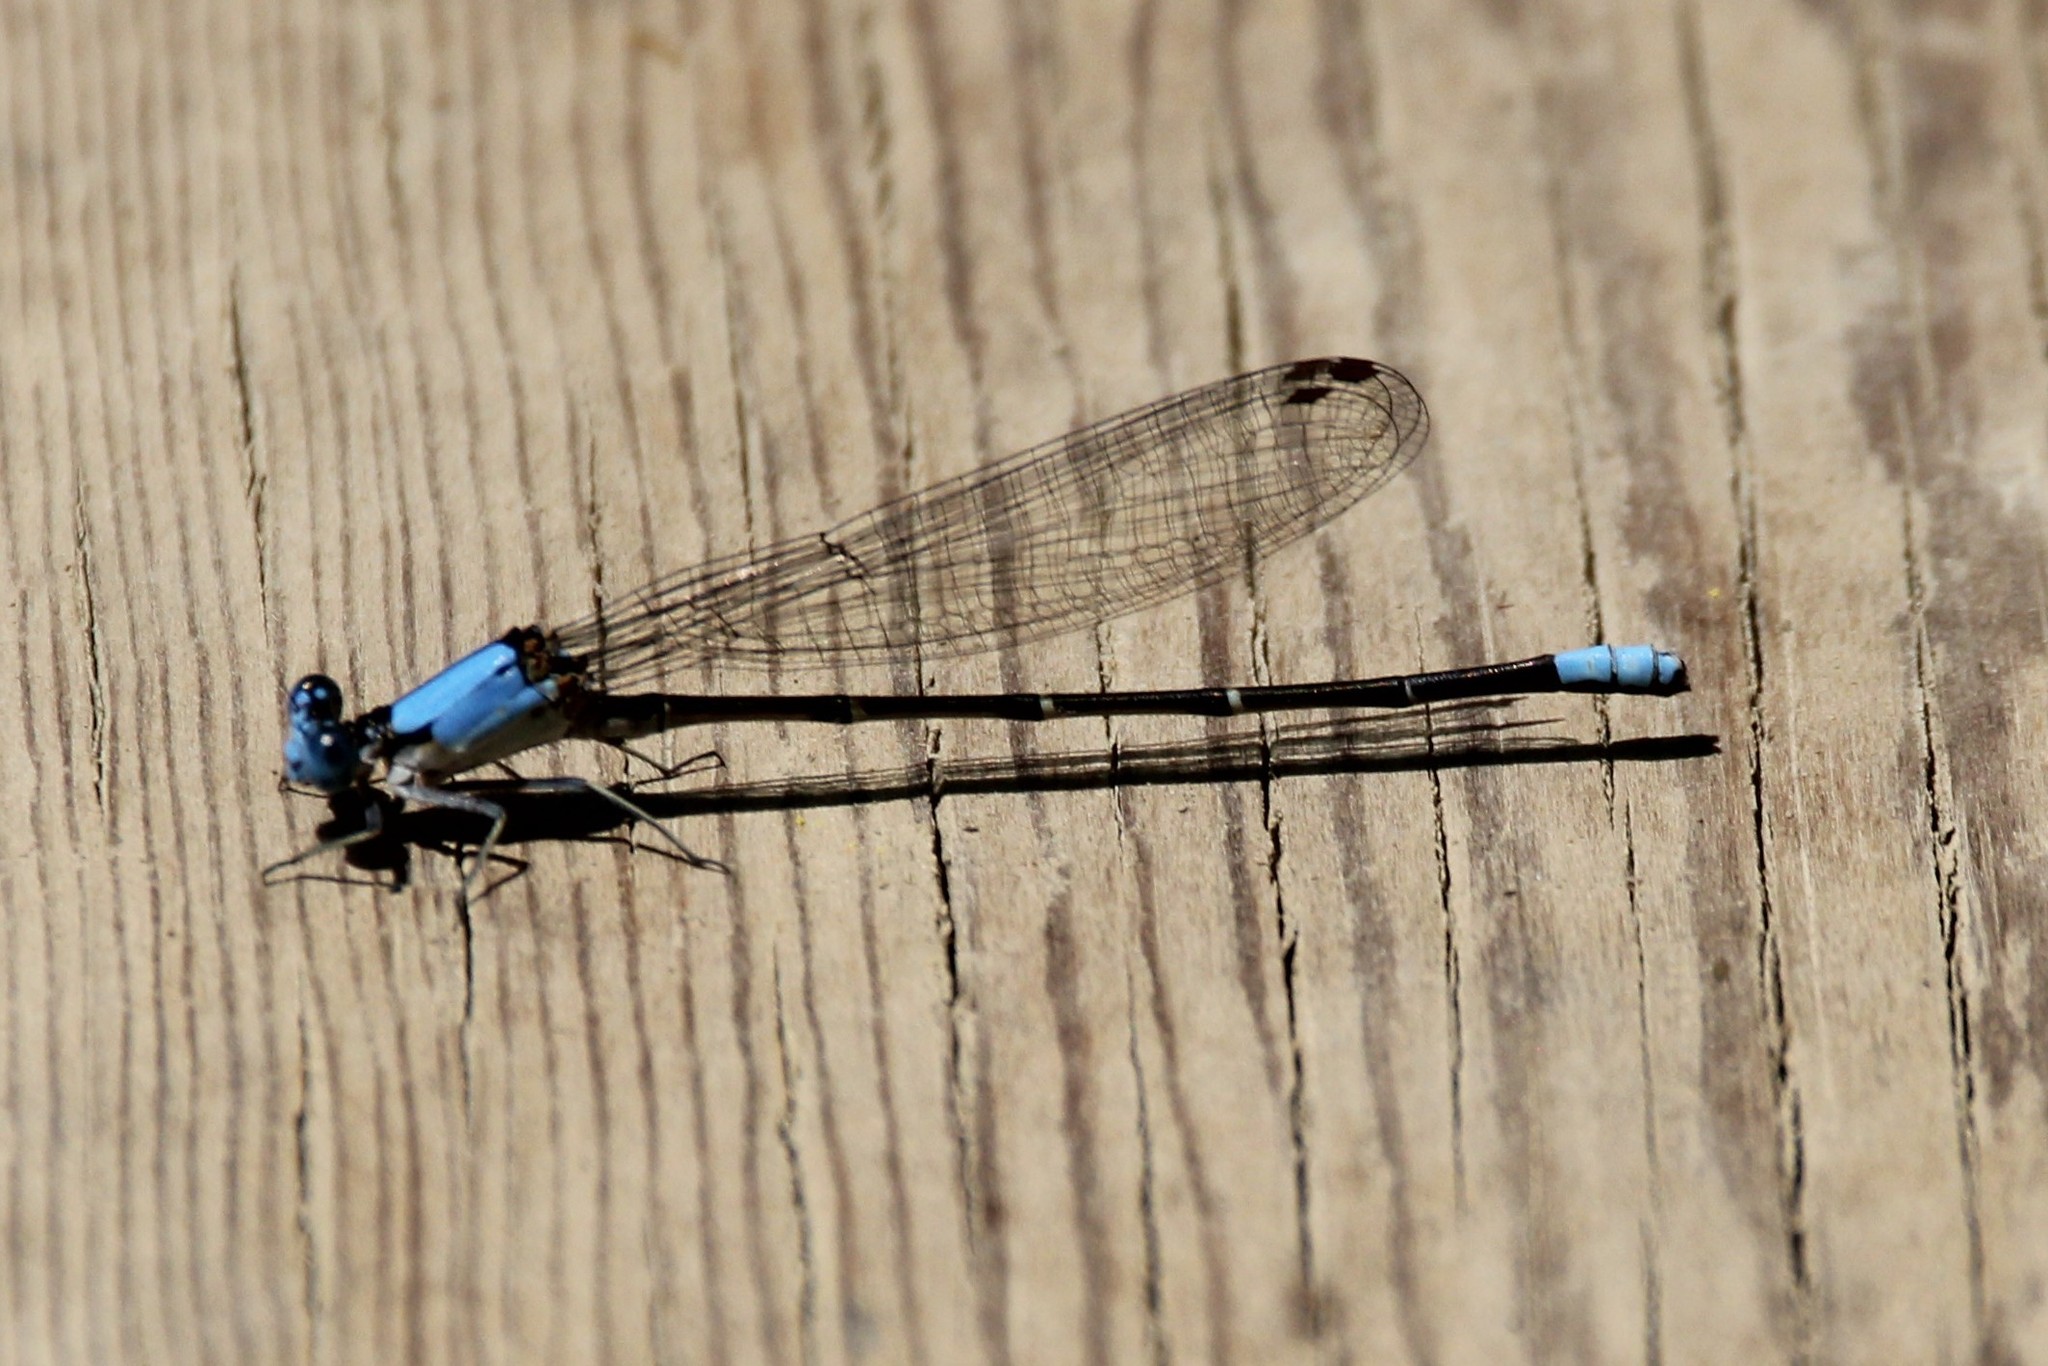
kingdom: Animalia
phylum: Arthropoda
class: Insecta
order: Odonata
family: Coenagrionidae
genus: Argia
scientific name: Argia apicalis
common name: Blue-fronted dancer
